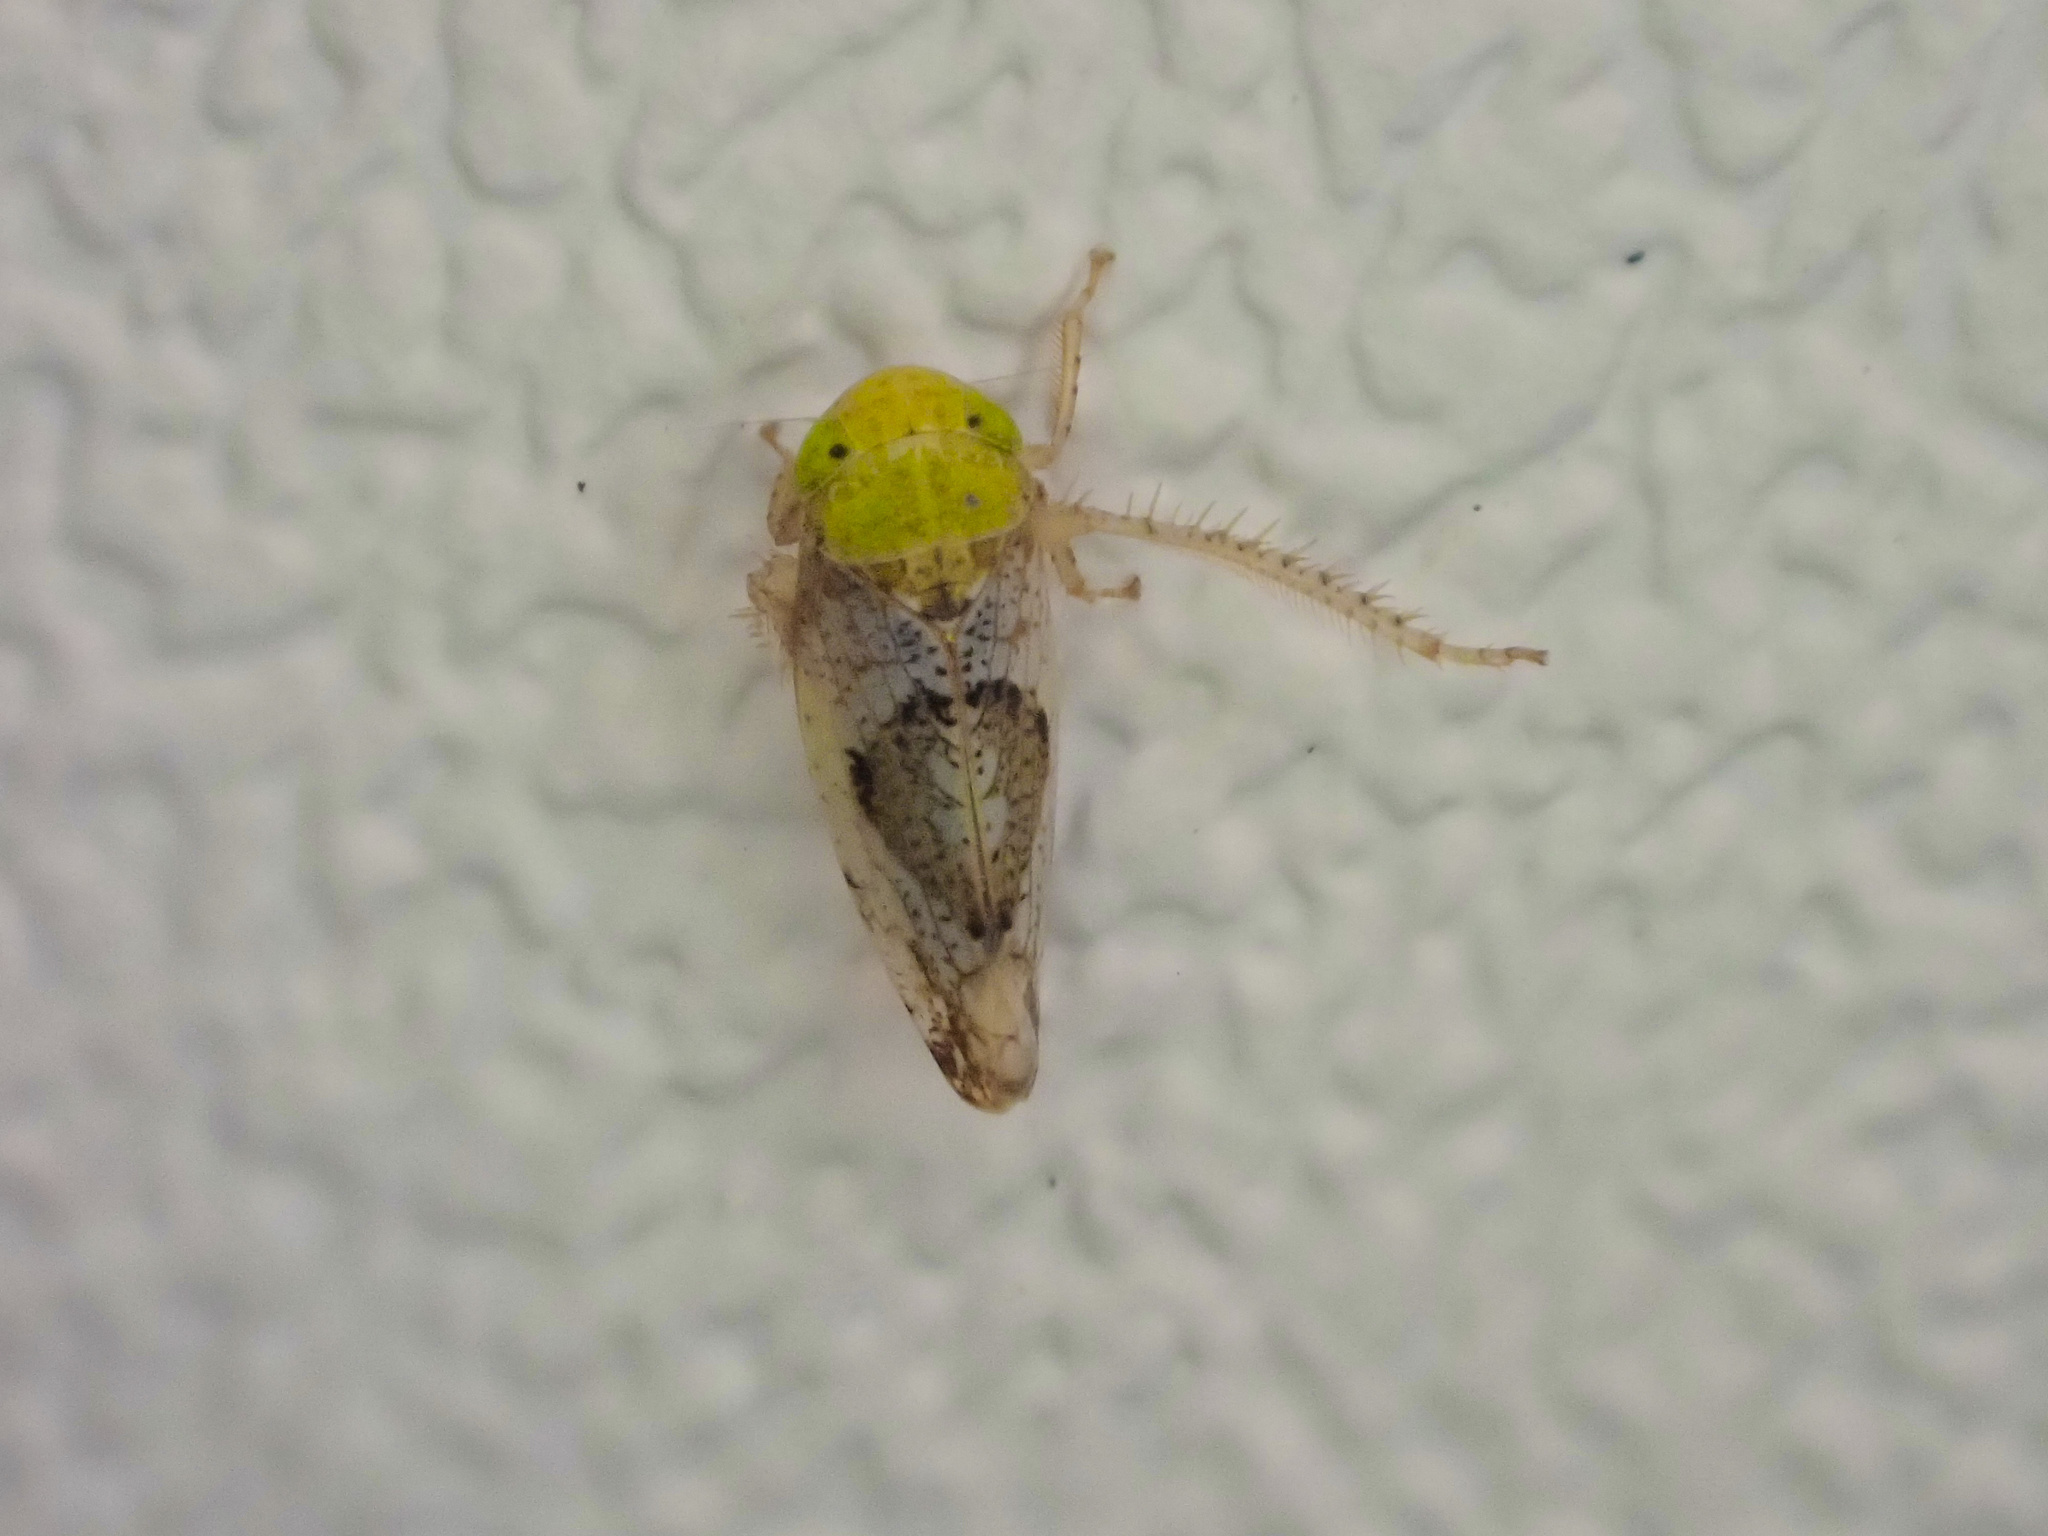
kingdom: Animalia
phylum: Arthropoda
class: Insecta
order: Hemiptera
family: Cicadellidae
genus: Hishimonus
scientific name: Hishimonus sellatus
